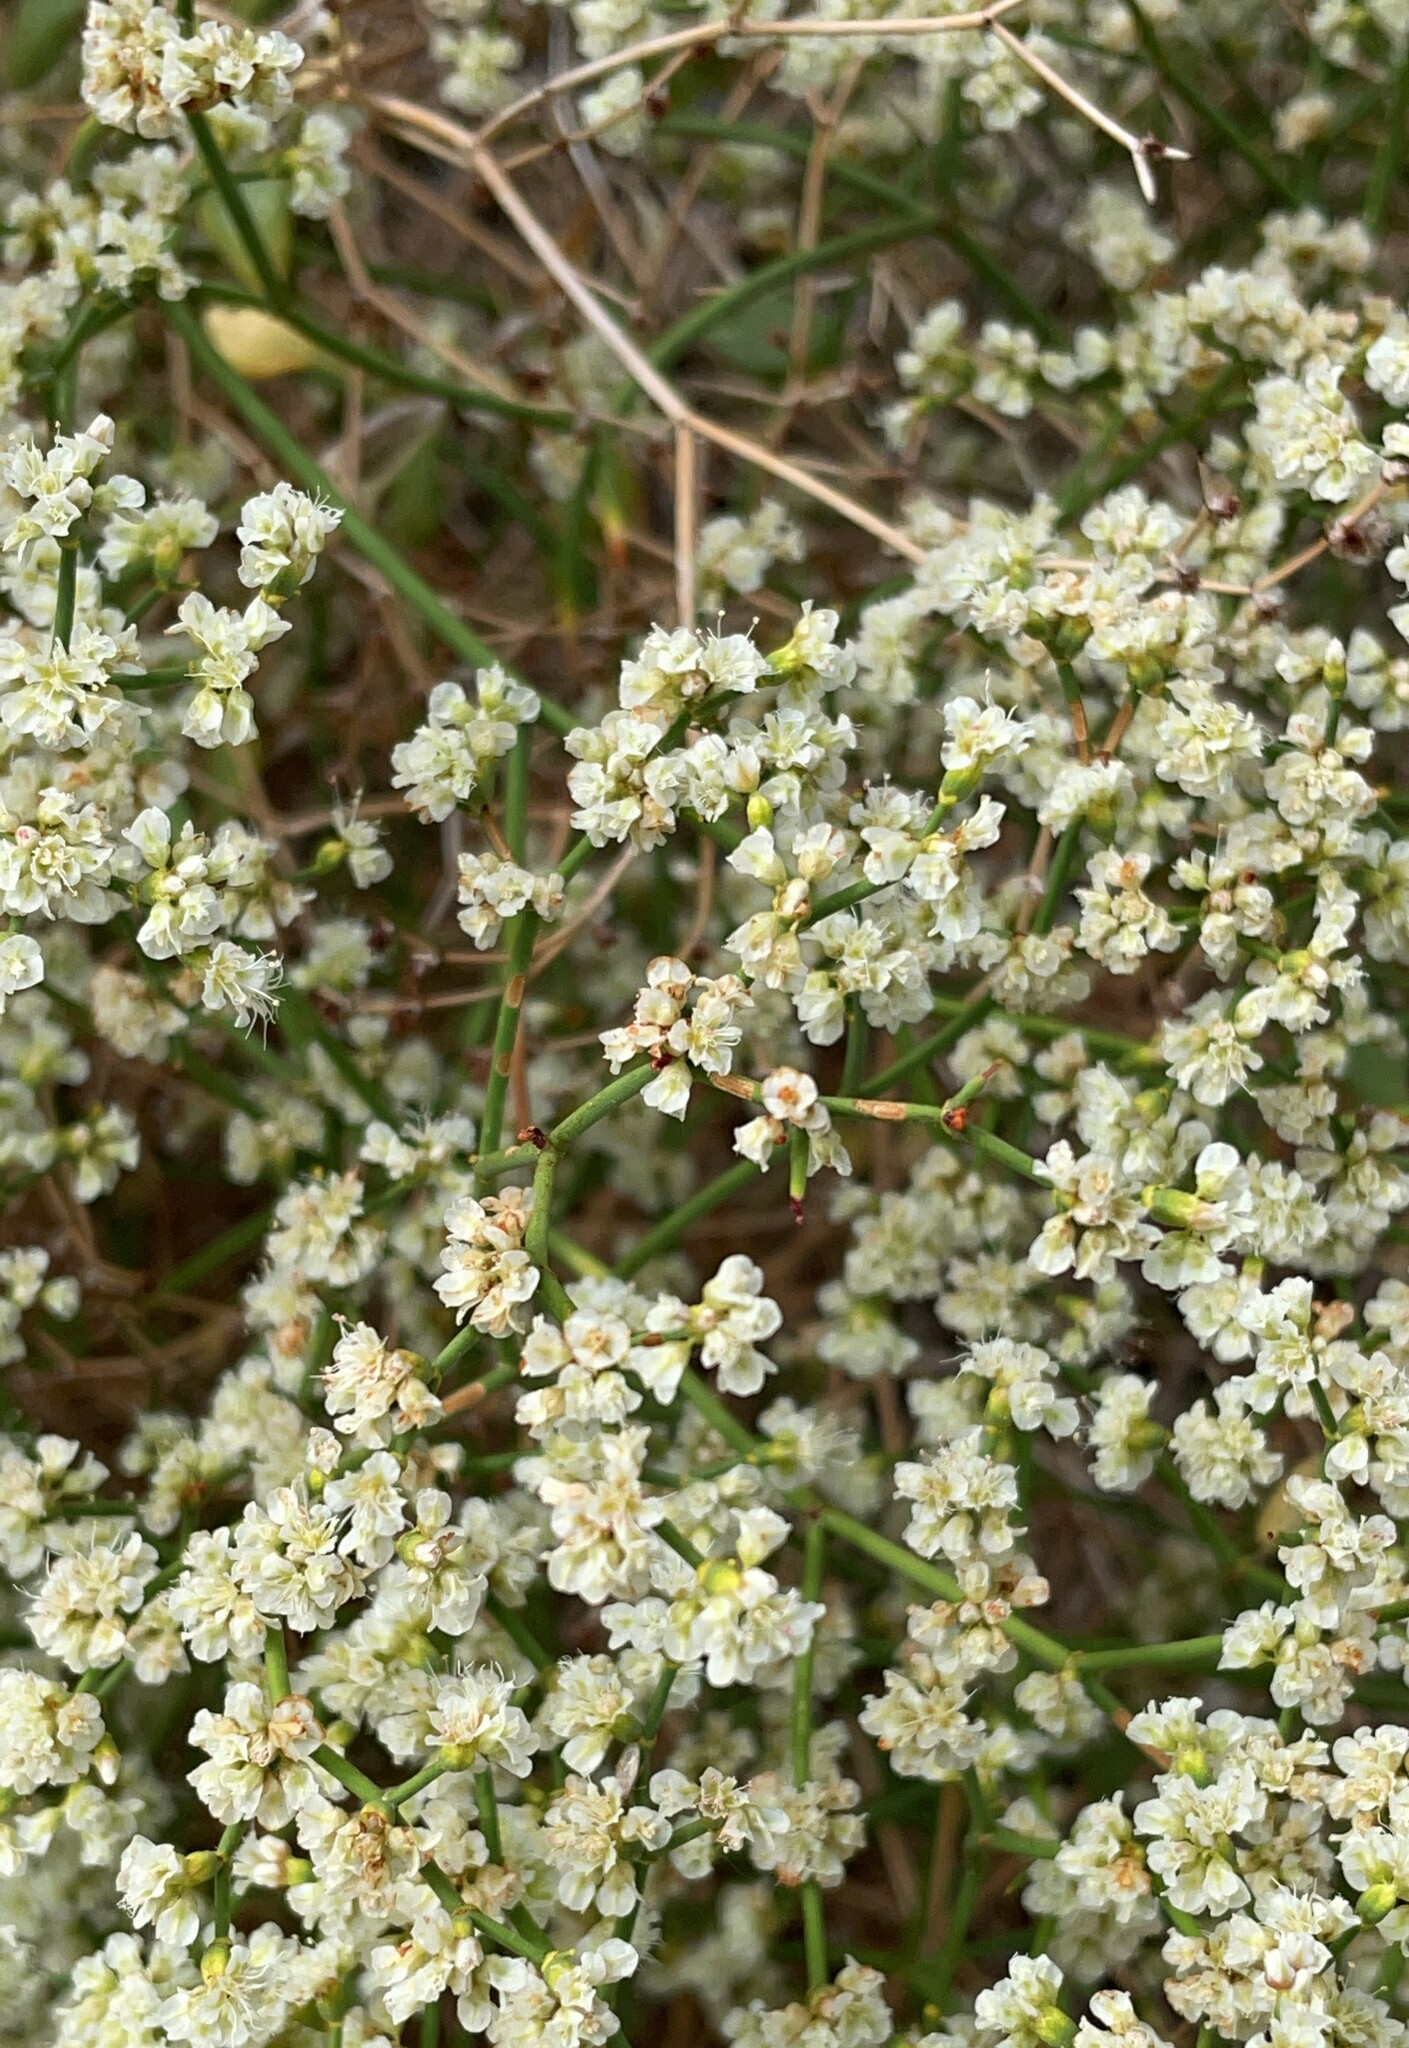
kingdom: Plantae
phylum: Tracheophyta
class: Magnoliopsida
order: Caryophyllales
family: Polygonaceae
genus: Eriogonum
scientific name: Eriogonum heermannii
